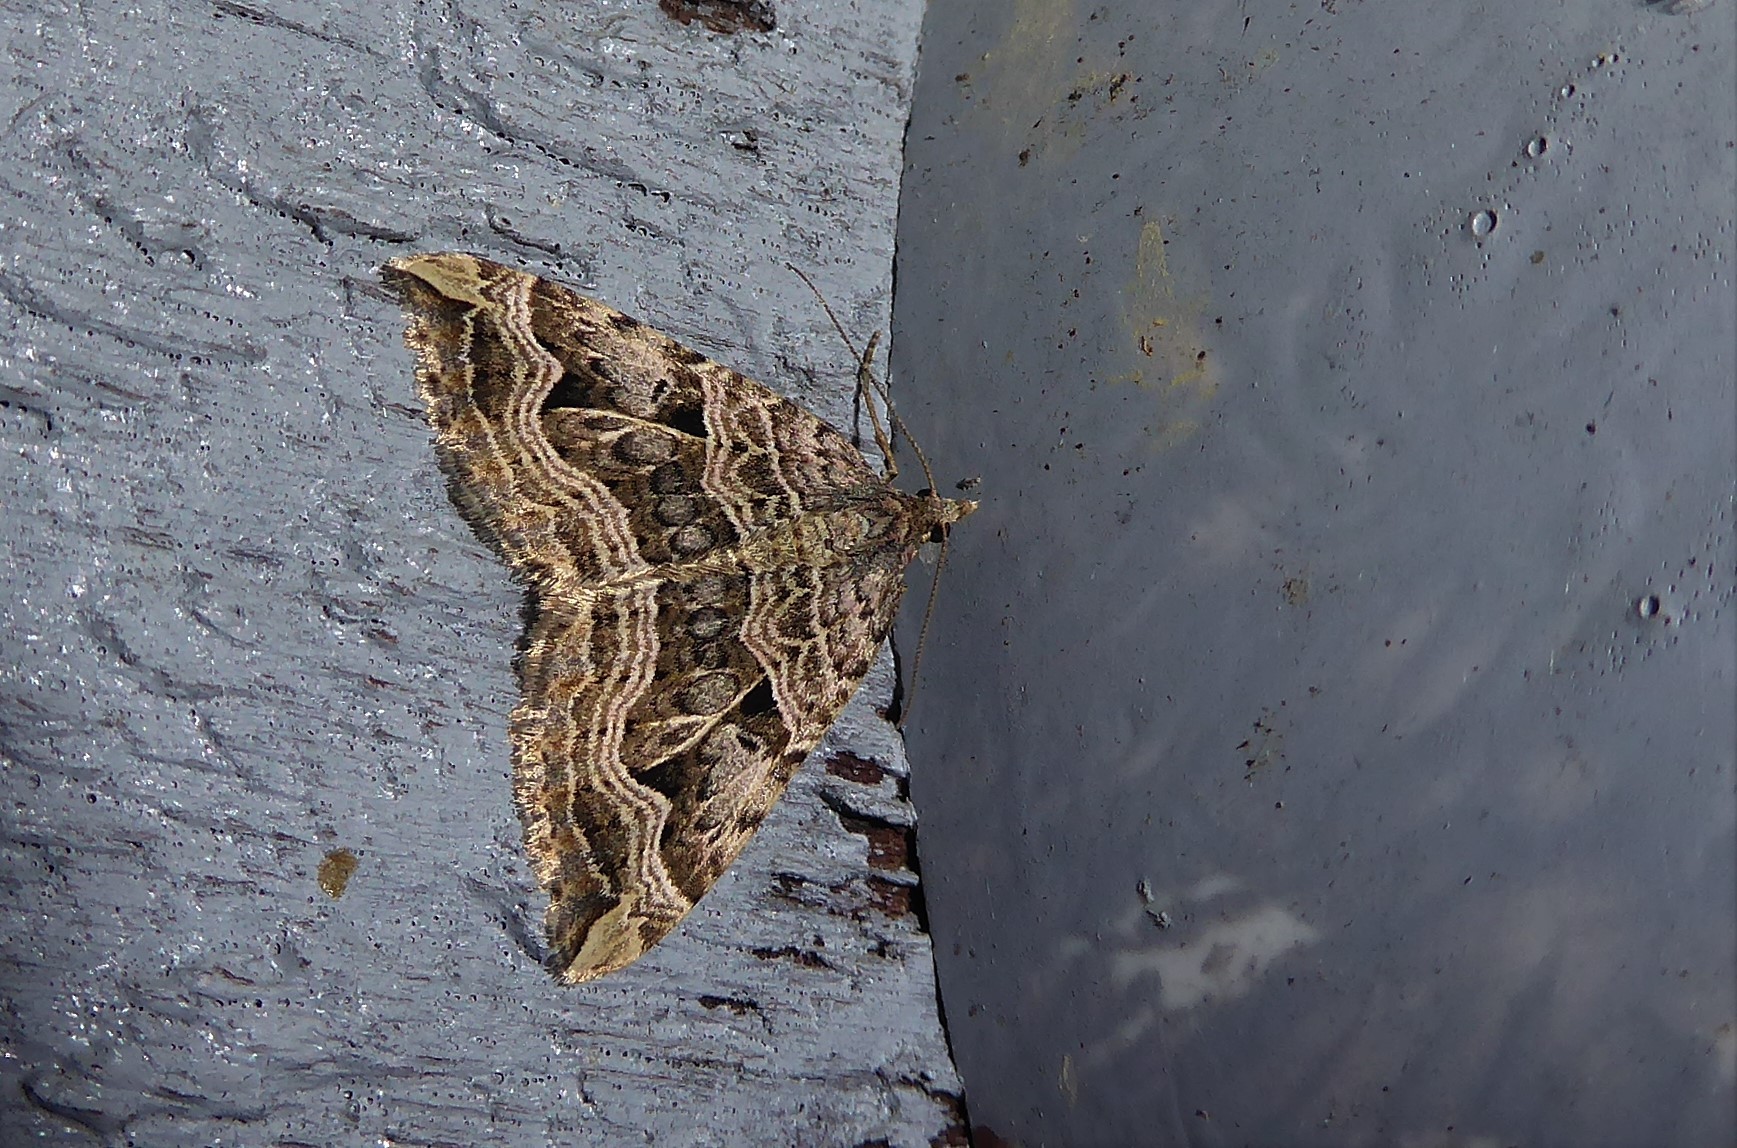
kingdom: Animalia
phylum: Arthropoda
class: Insecta
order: Lepidoptera
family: Geometridae
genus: Xanthorhoe
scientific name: Xanthorhoe semifissata
